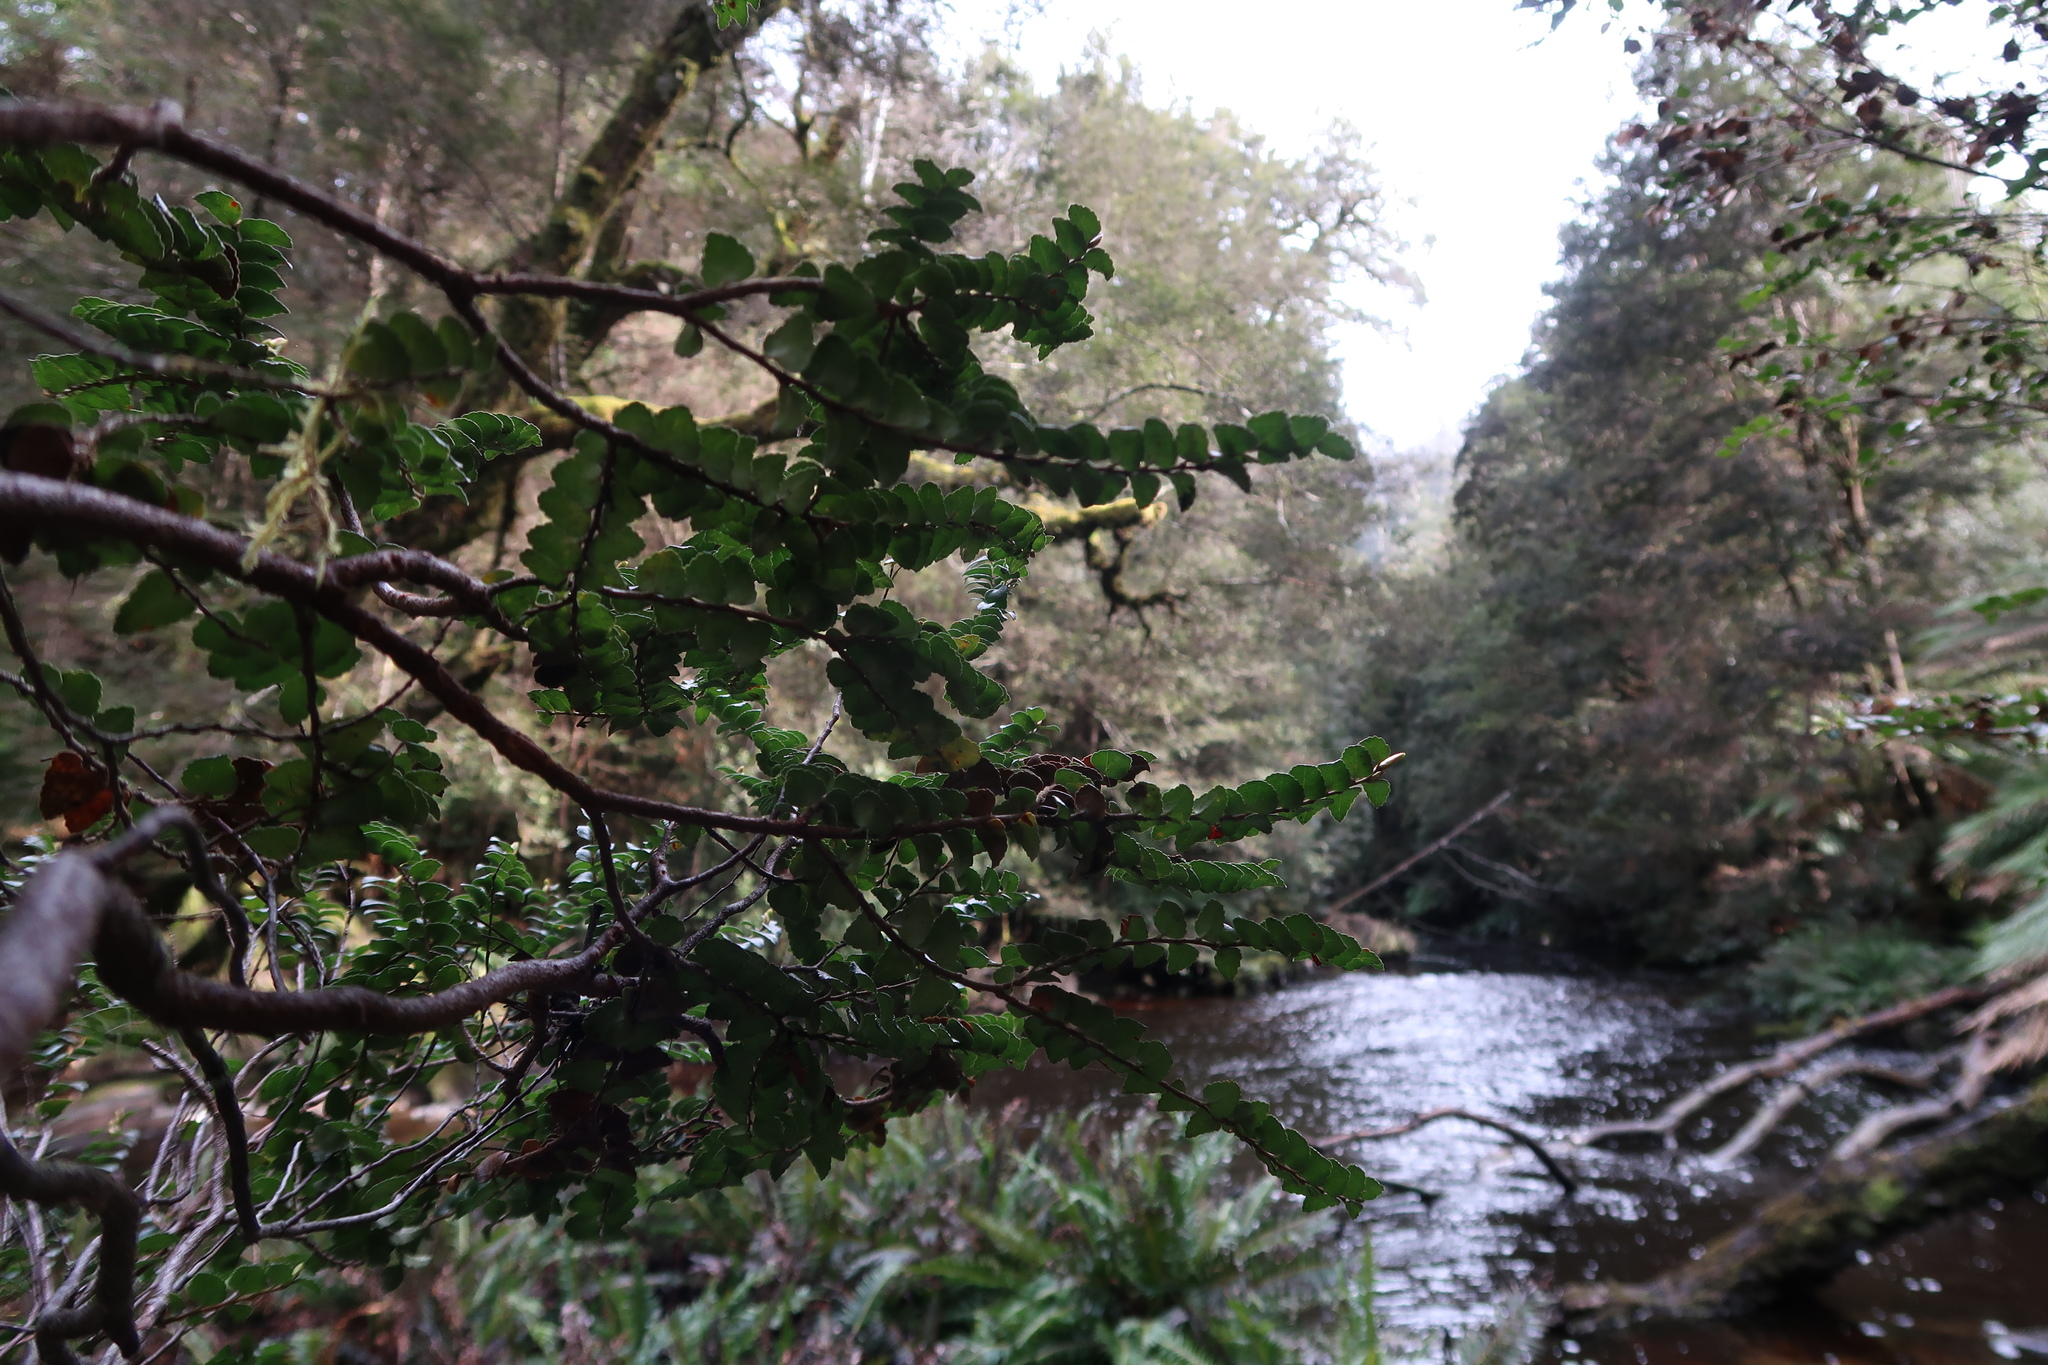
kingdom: Plantae
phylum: Tracheophyta
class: Magnoliopsida
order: Fagales
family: Nothofagaceae
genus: Nothofagus
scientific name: Nothofagus cunninghamii
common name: Myrtle beech
